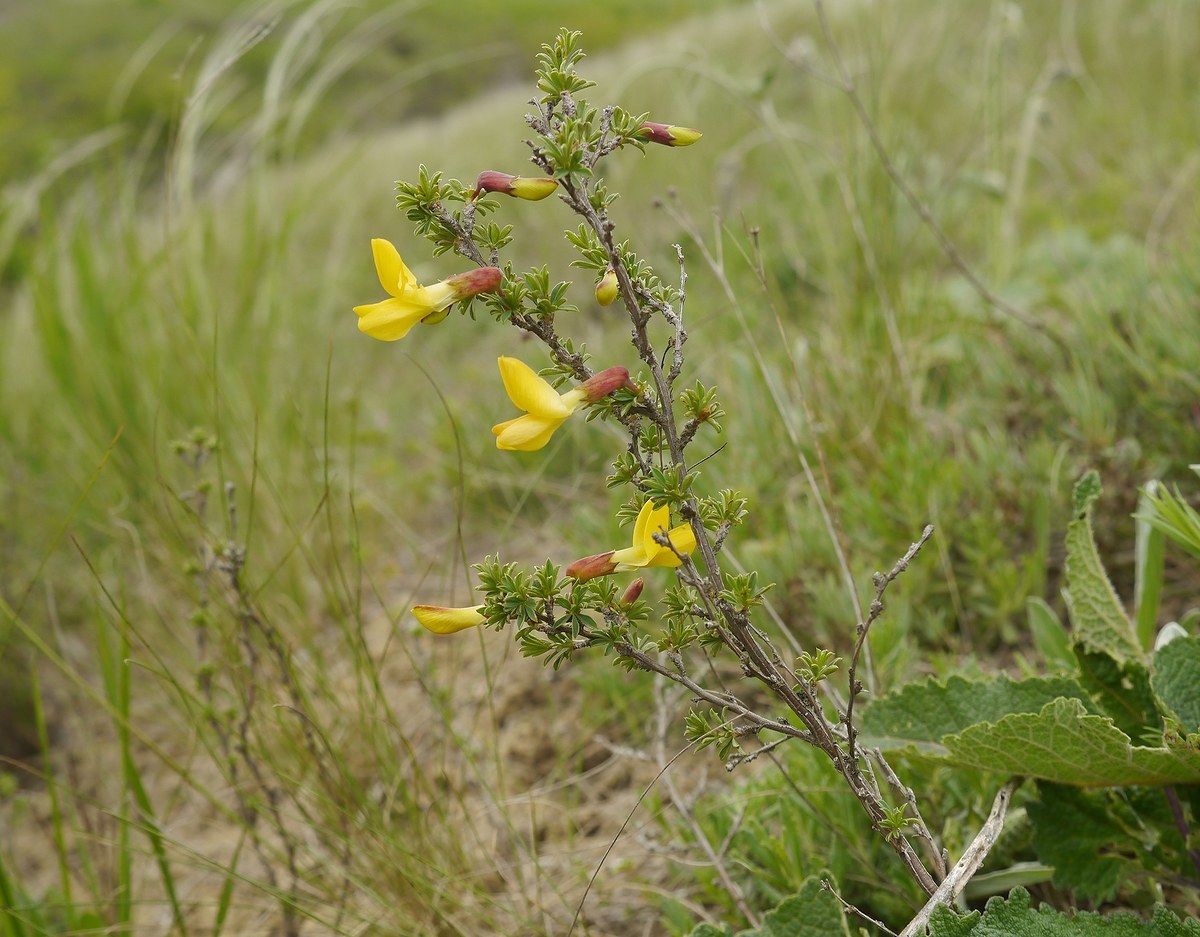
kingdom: Plantae
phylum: Tracheophyta
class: Magnoliopsida
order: Fabales
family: Fabaceae
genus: Caragana
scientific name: Caragana scythica
